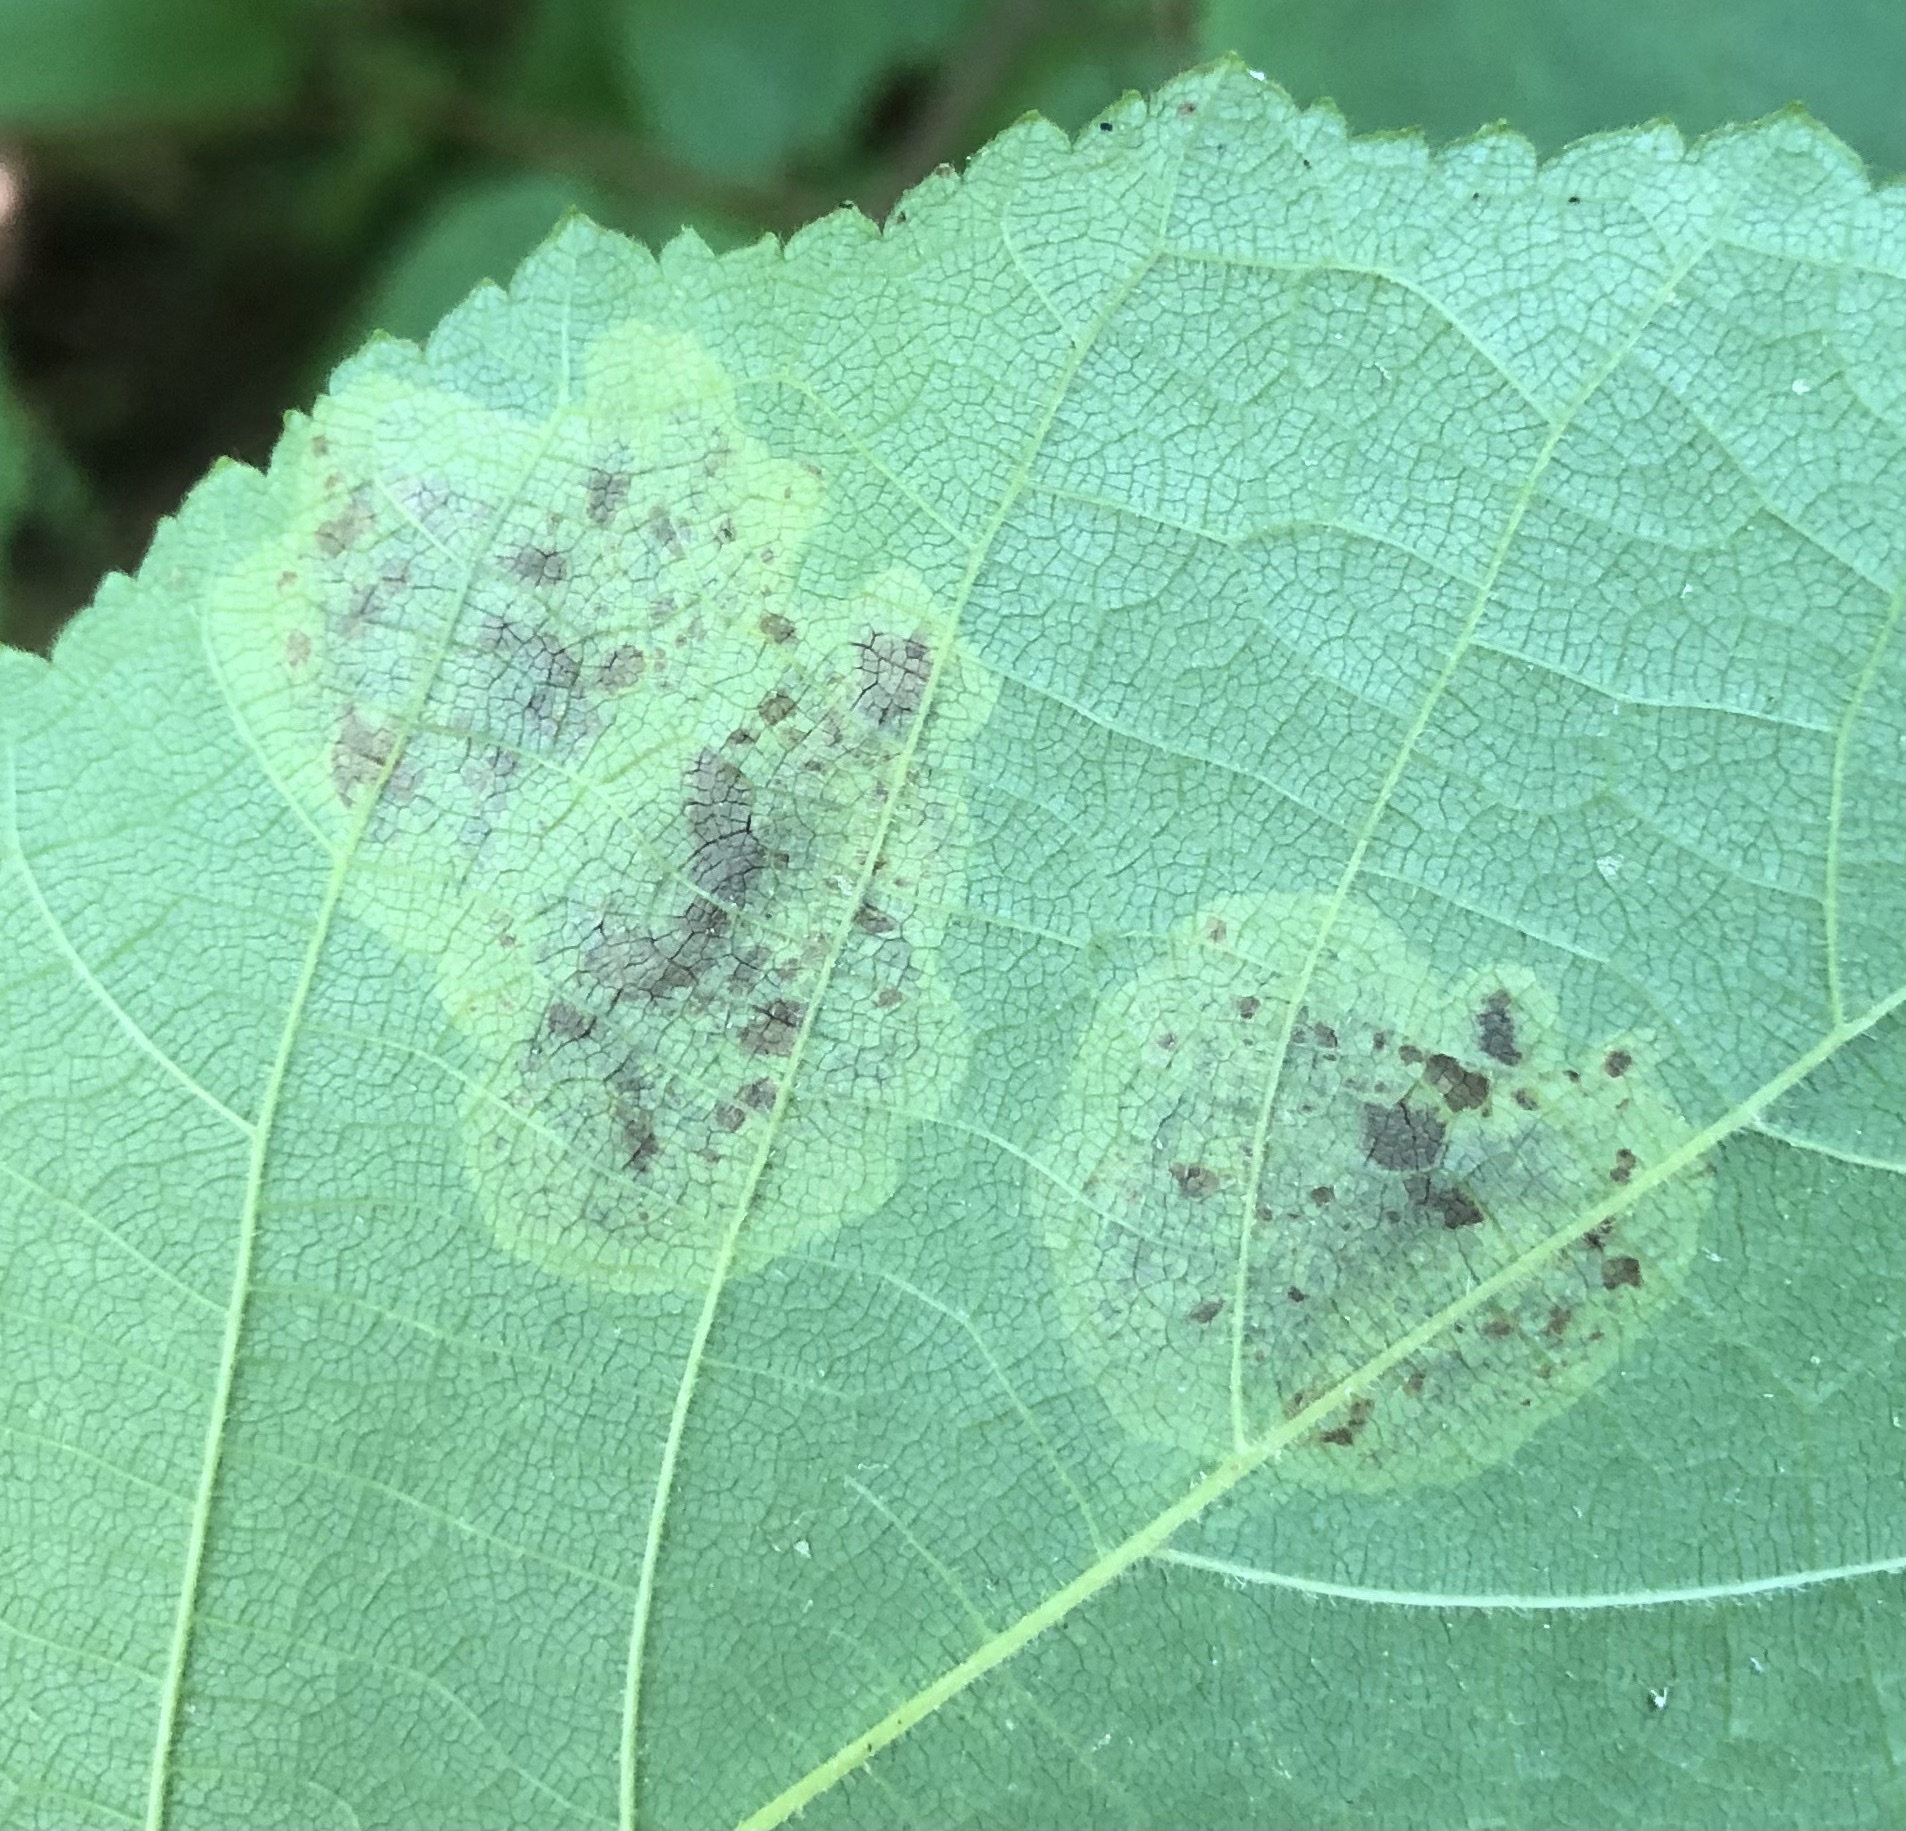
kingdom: Animalia
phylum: Arthropoda
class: Insecta
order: Lepidoptera
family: Gracillariidae
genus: Cameraria
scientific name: Cameraria corylisella
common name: Hazel blotchminer
